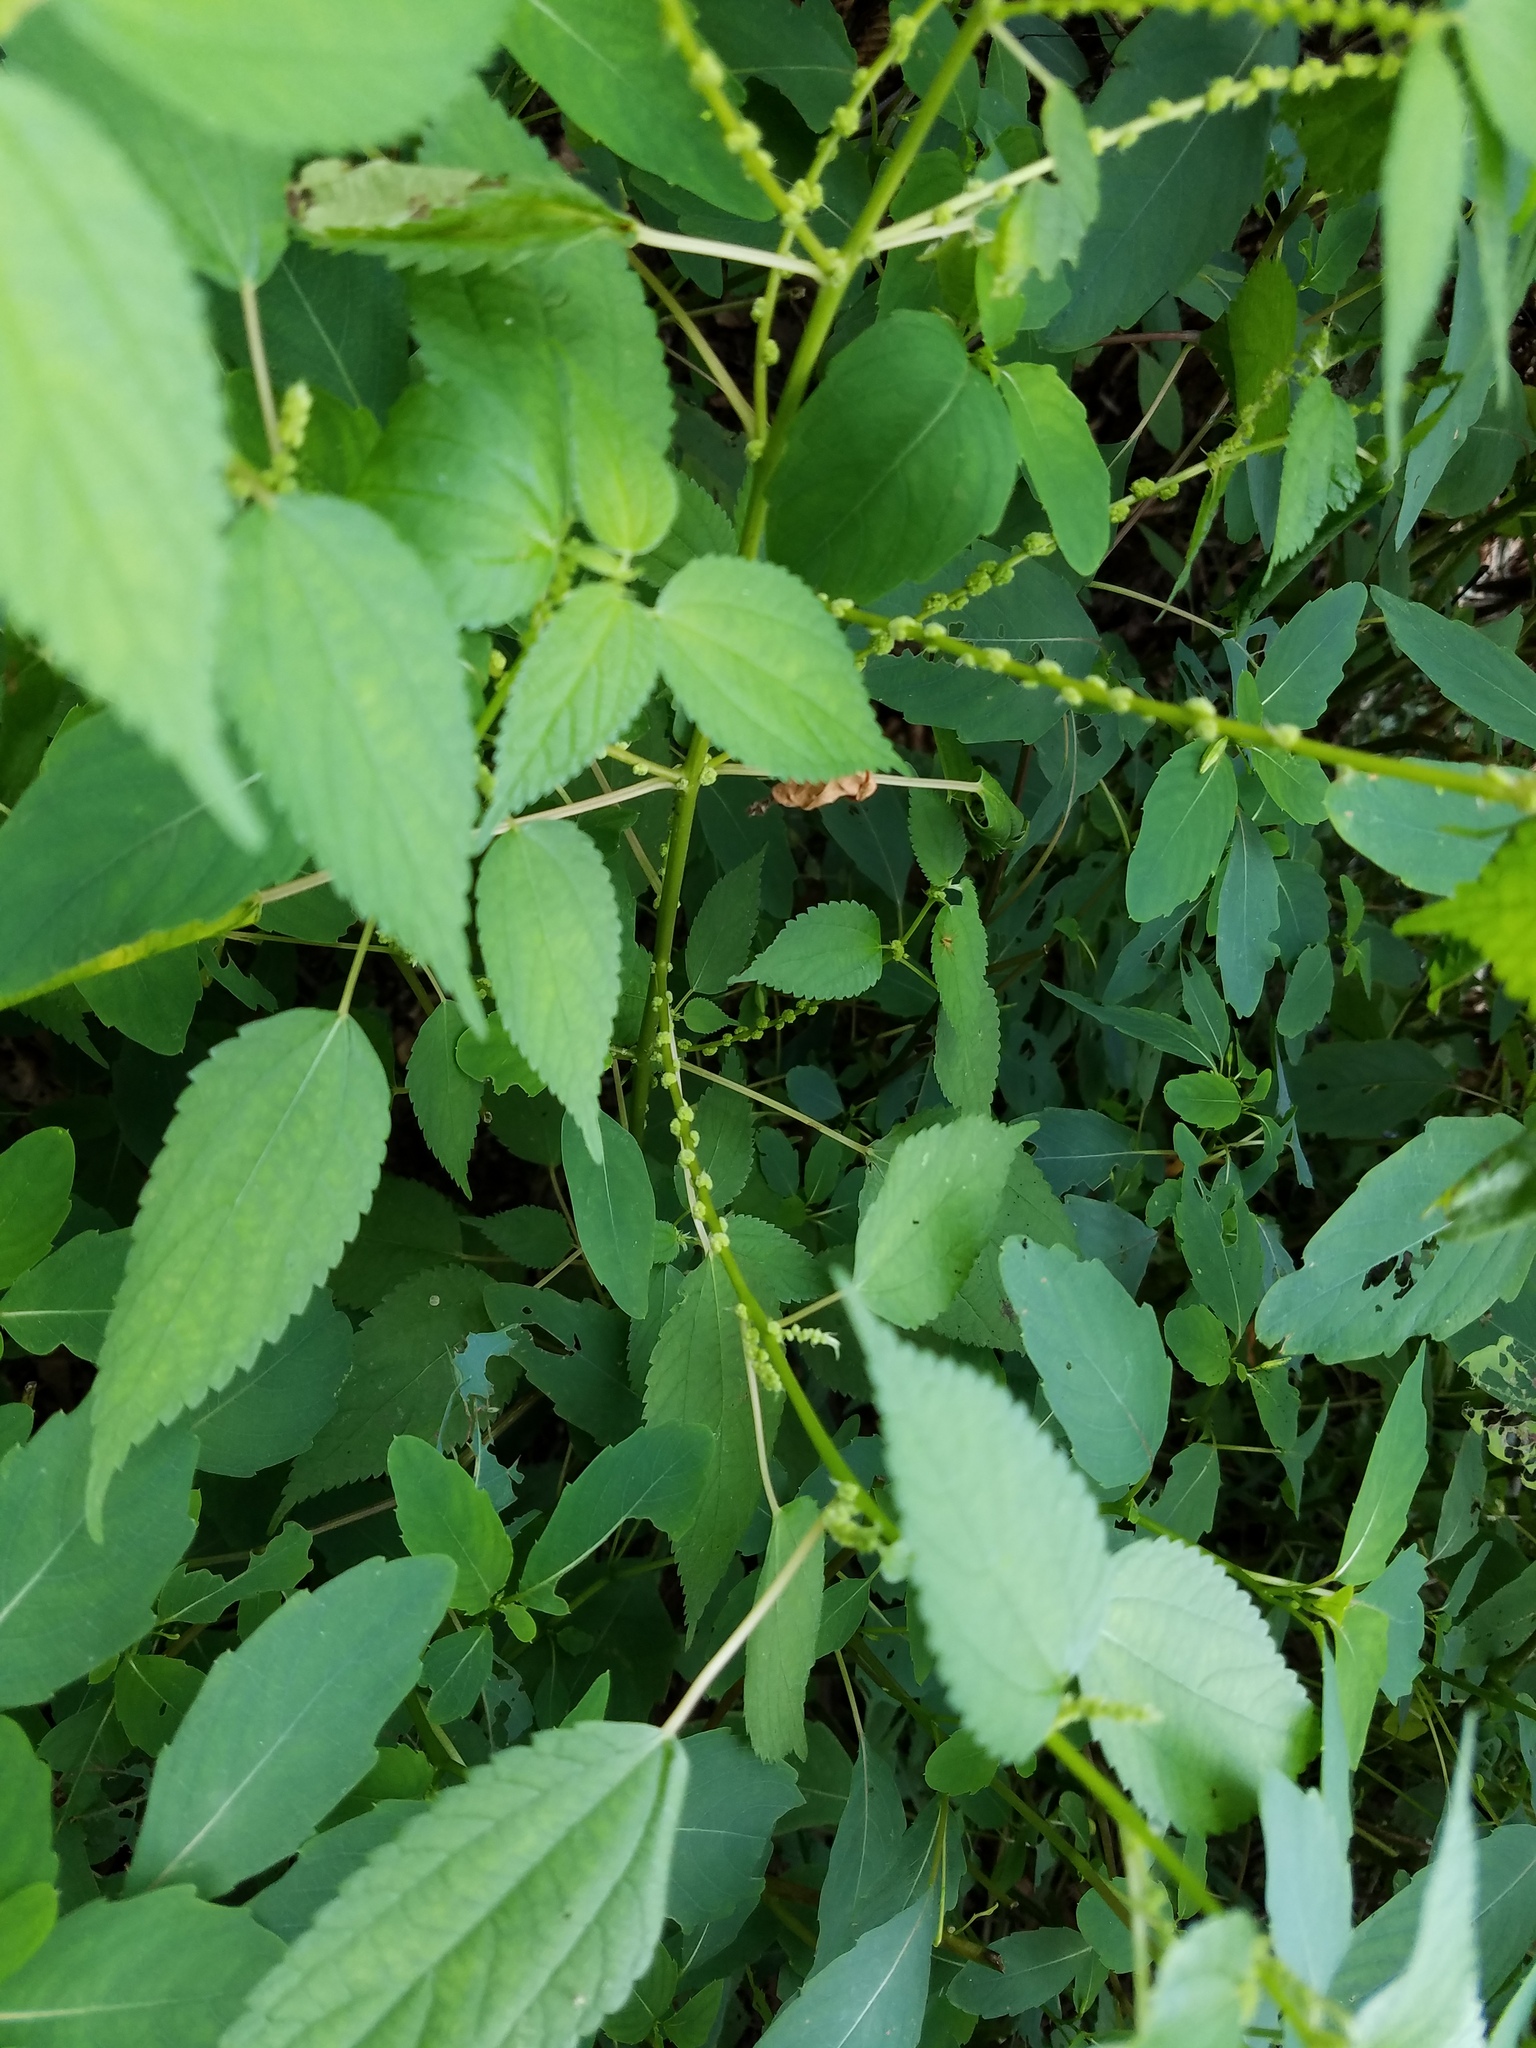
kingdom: Plantae
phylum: Tracheophyta
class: Magnoliopsida
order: Rosales
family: Urticaceae
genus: Boehmeria
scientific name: Boehmeria cylindrica
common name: Bog-hemp
